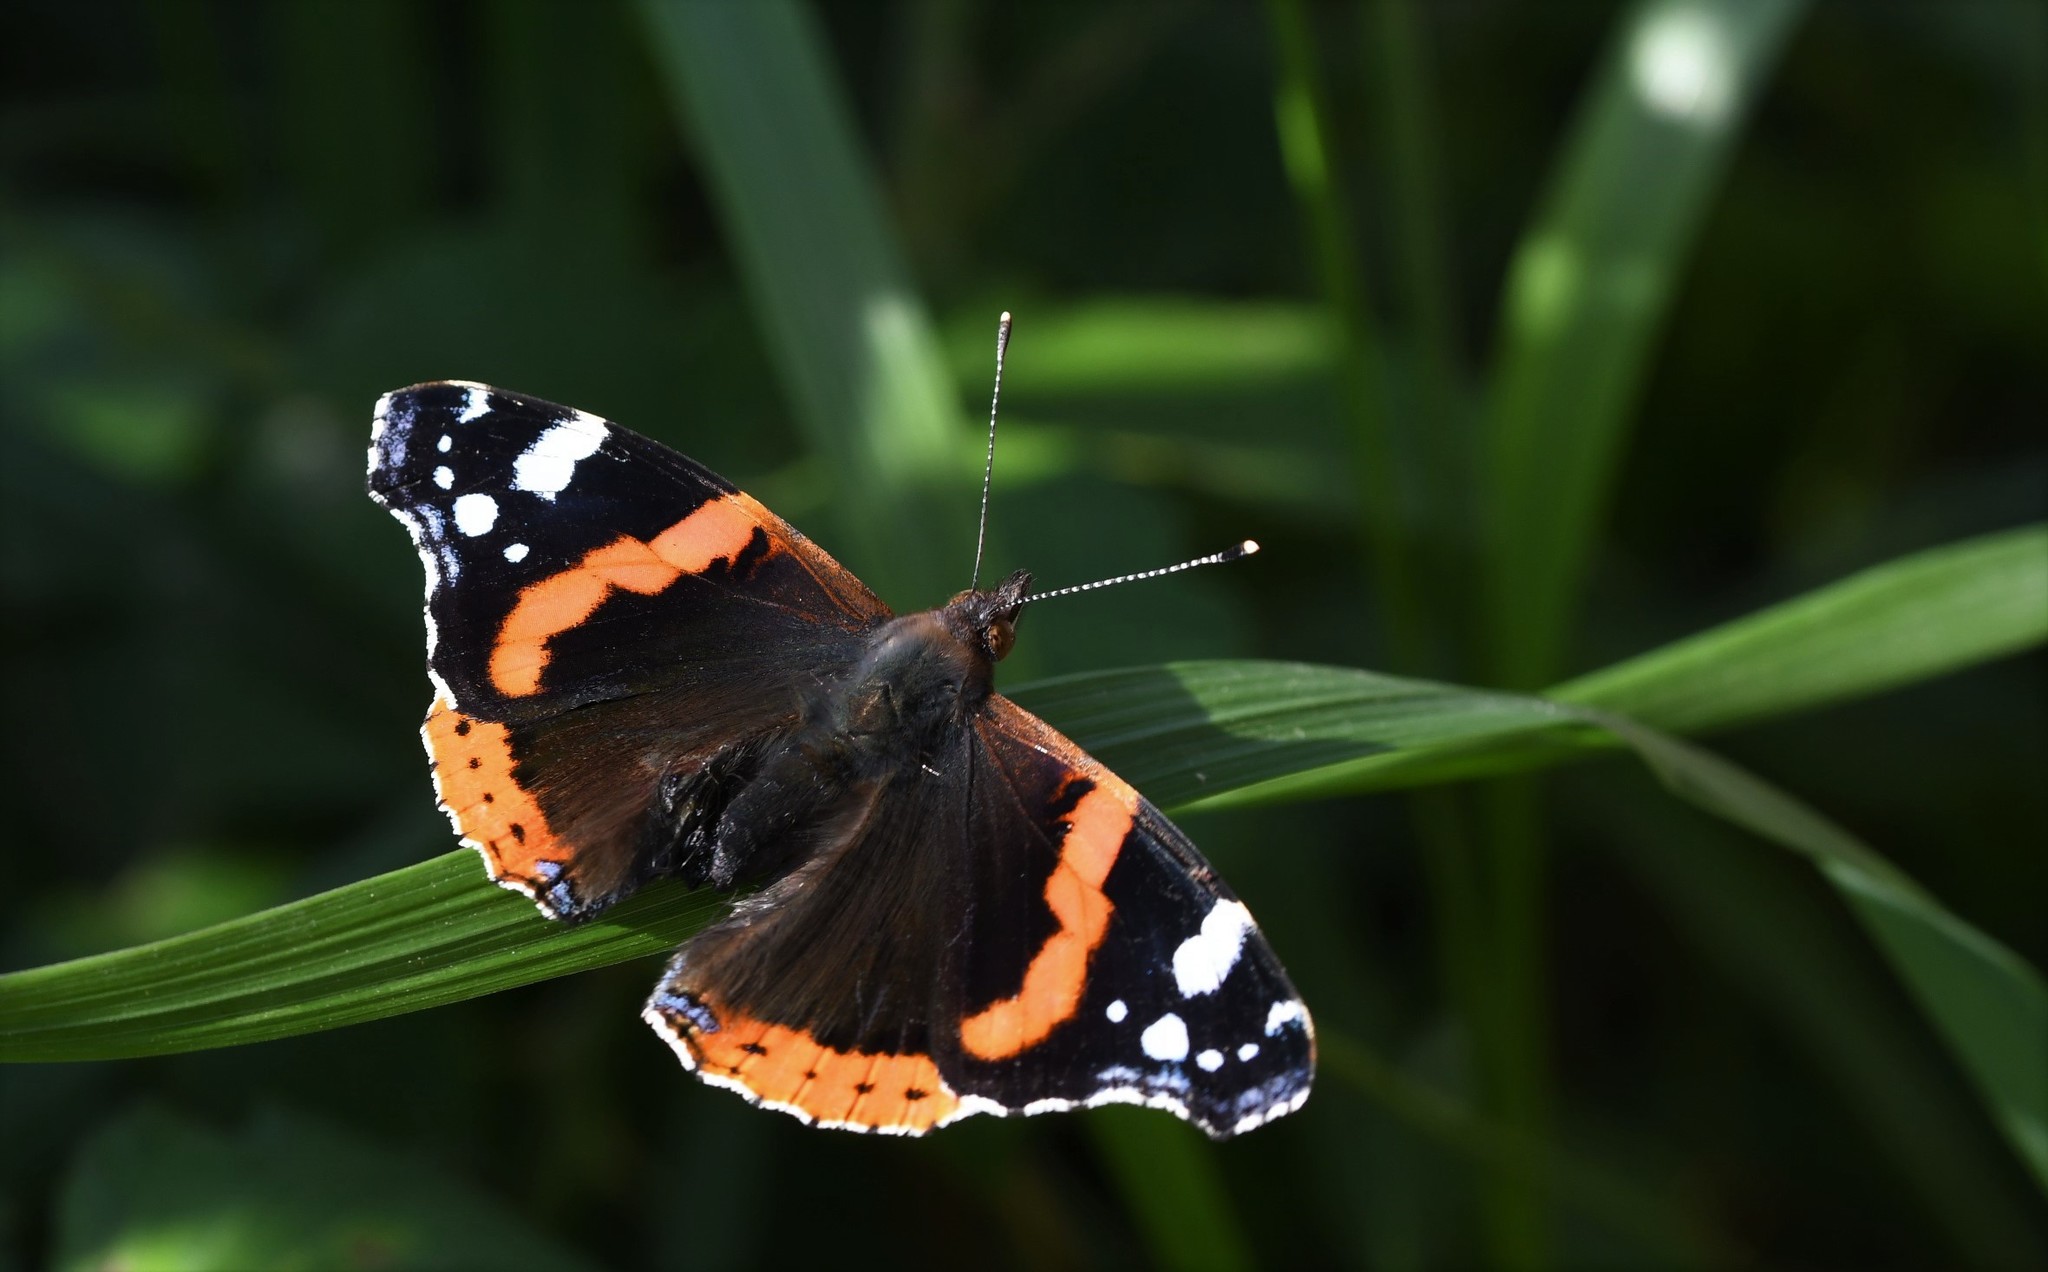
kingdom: Animalia
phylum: Arthropoda
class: Insecta
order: Lepidoptera
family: Nymphalidae
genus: Vanessa
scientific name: Vanessa atalanta
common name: Red admiral
